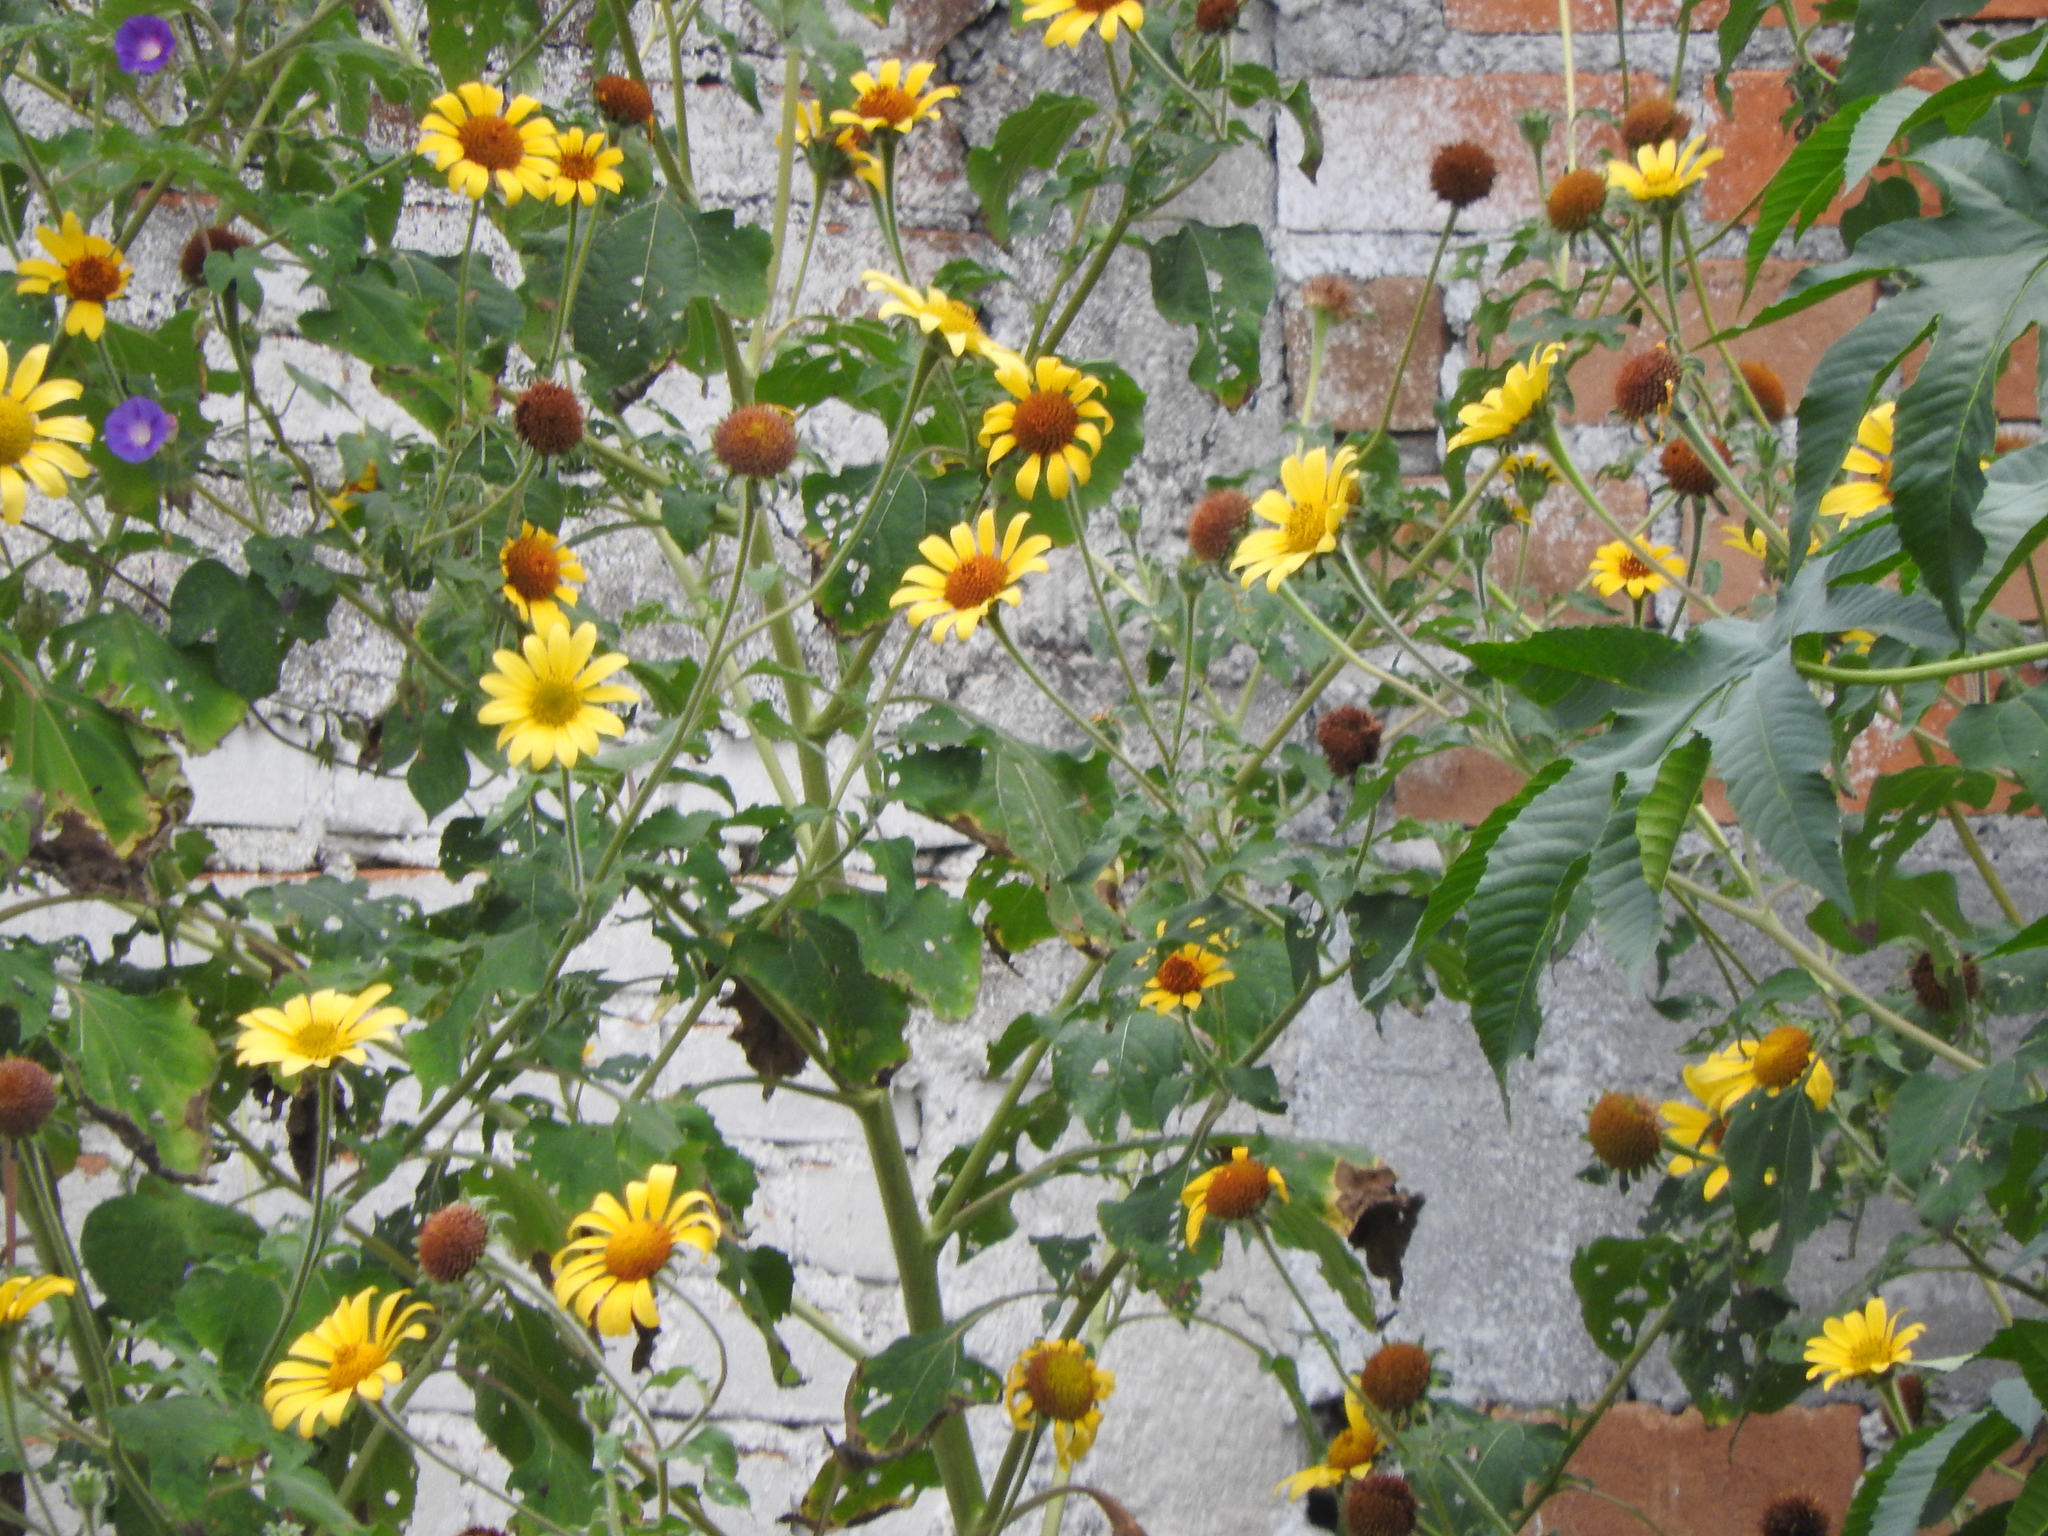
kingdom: Plantae
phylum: Tracheophyta
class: Magnoliopsida
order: Asterales
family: Asteraceae
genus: Tithonia
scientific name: Tithonia tubaeformis
